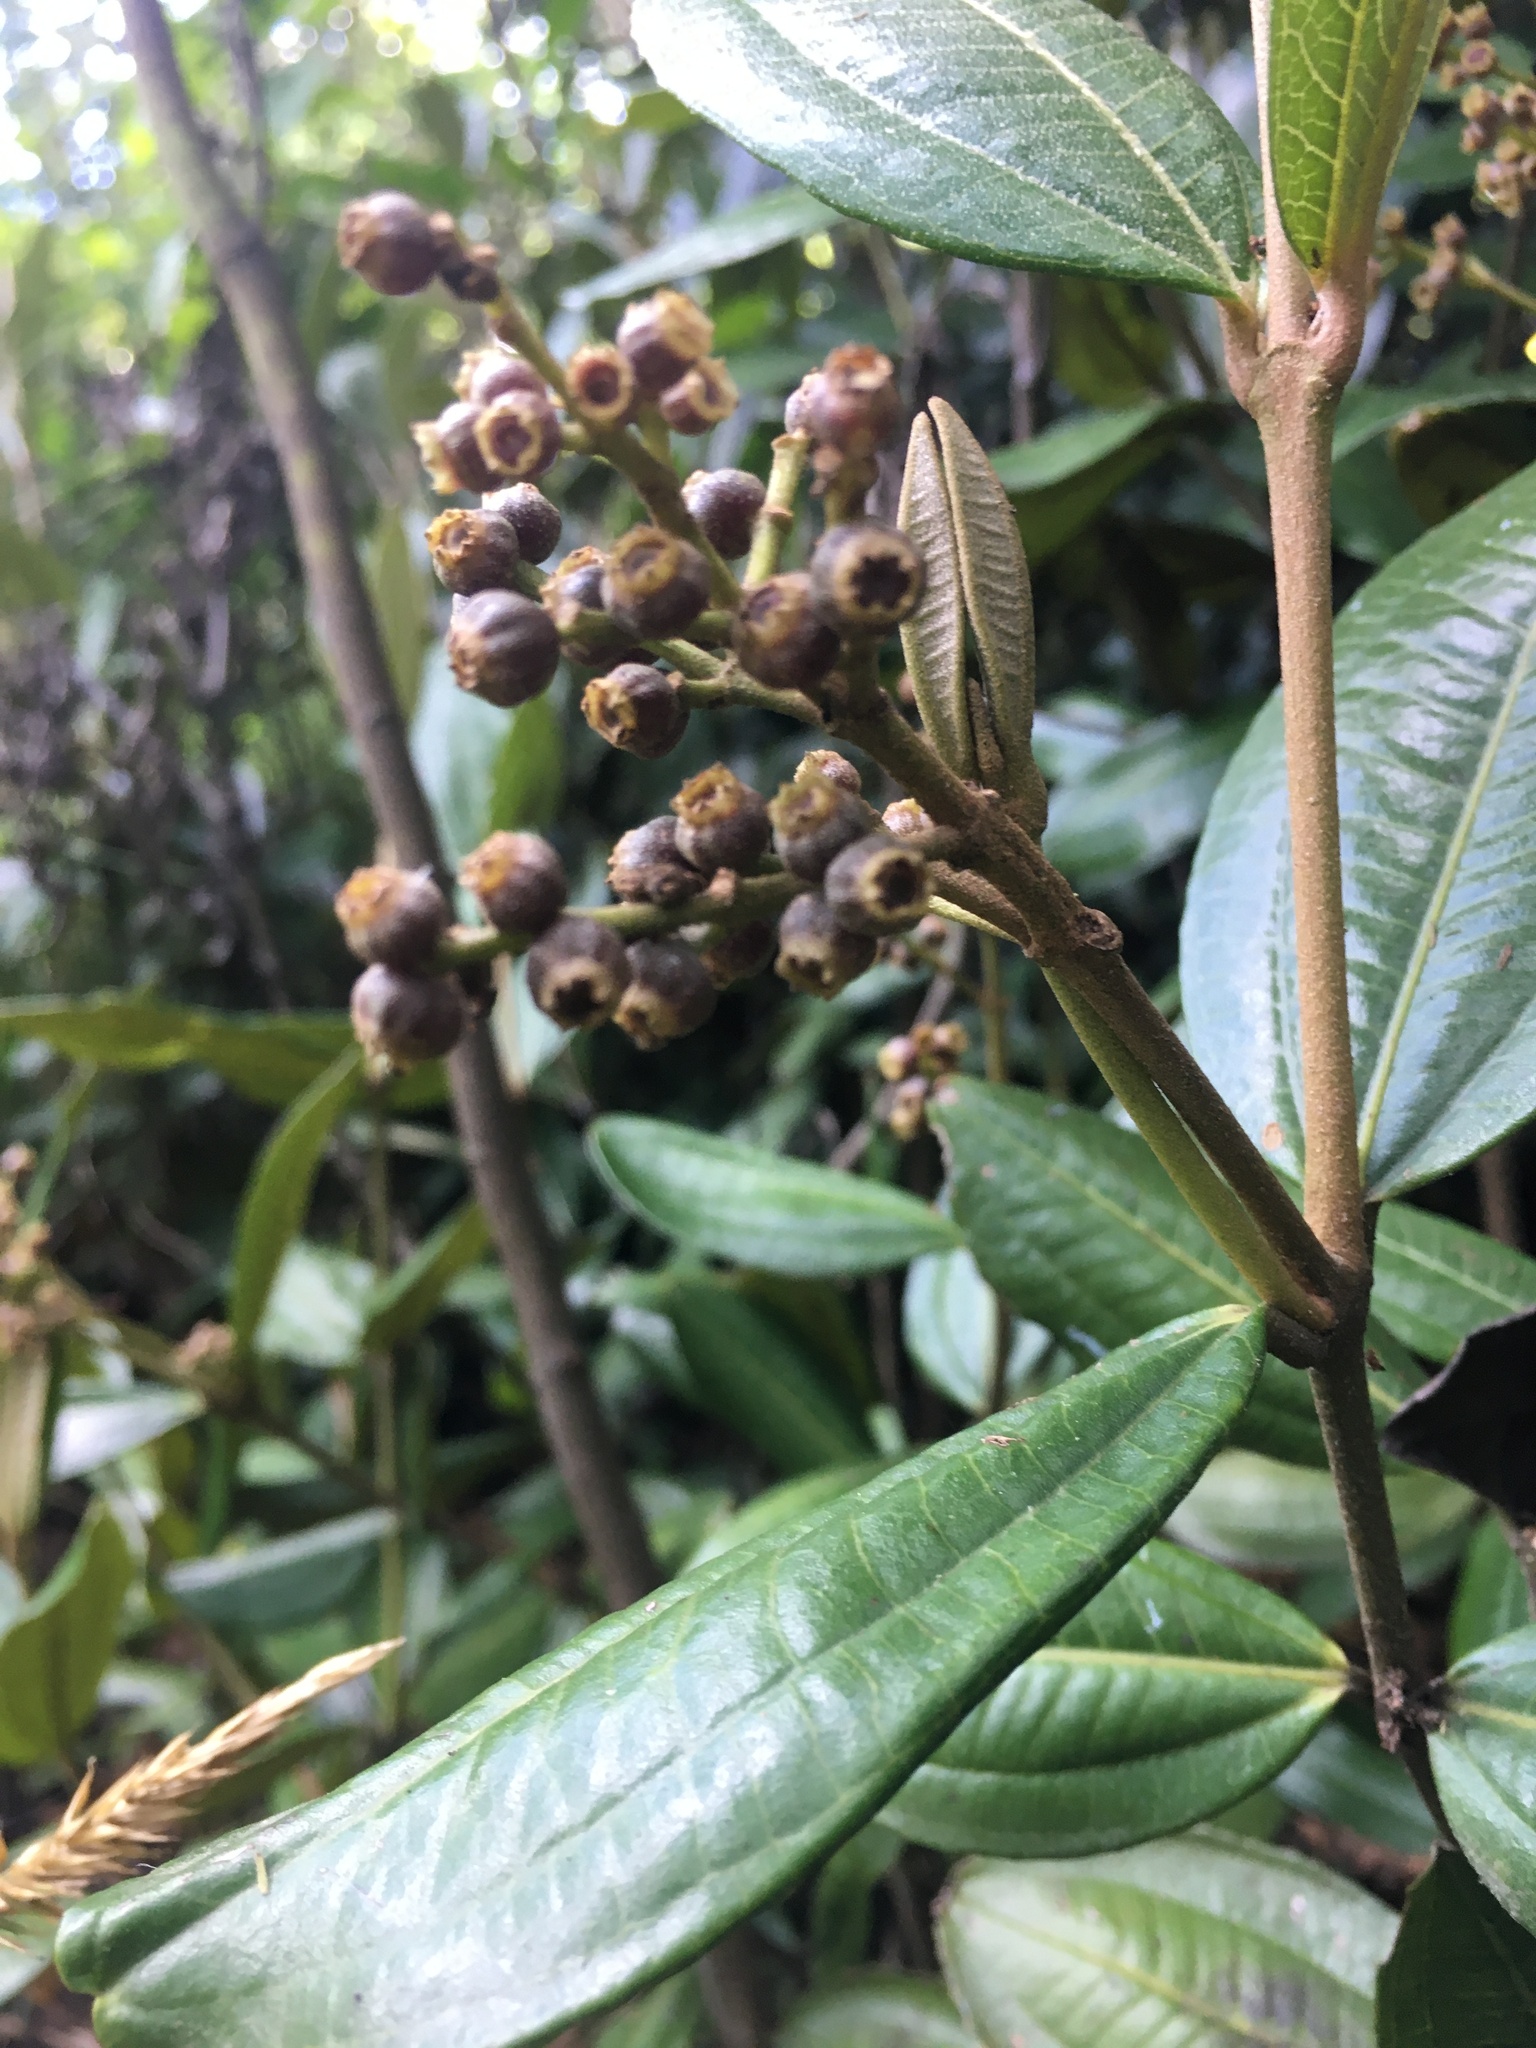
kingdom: Plantae
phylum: Tracheophyta
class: Magnoliopsida
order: Myrtales
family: Melastomataceae
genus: Miconia
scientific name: Miconia squamulosa
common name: Squamulose maya
